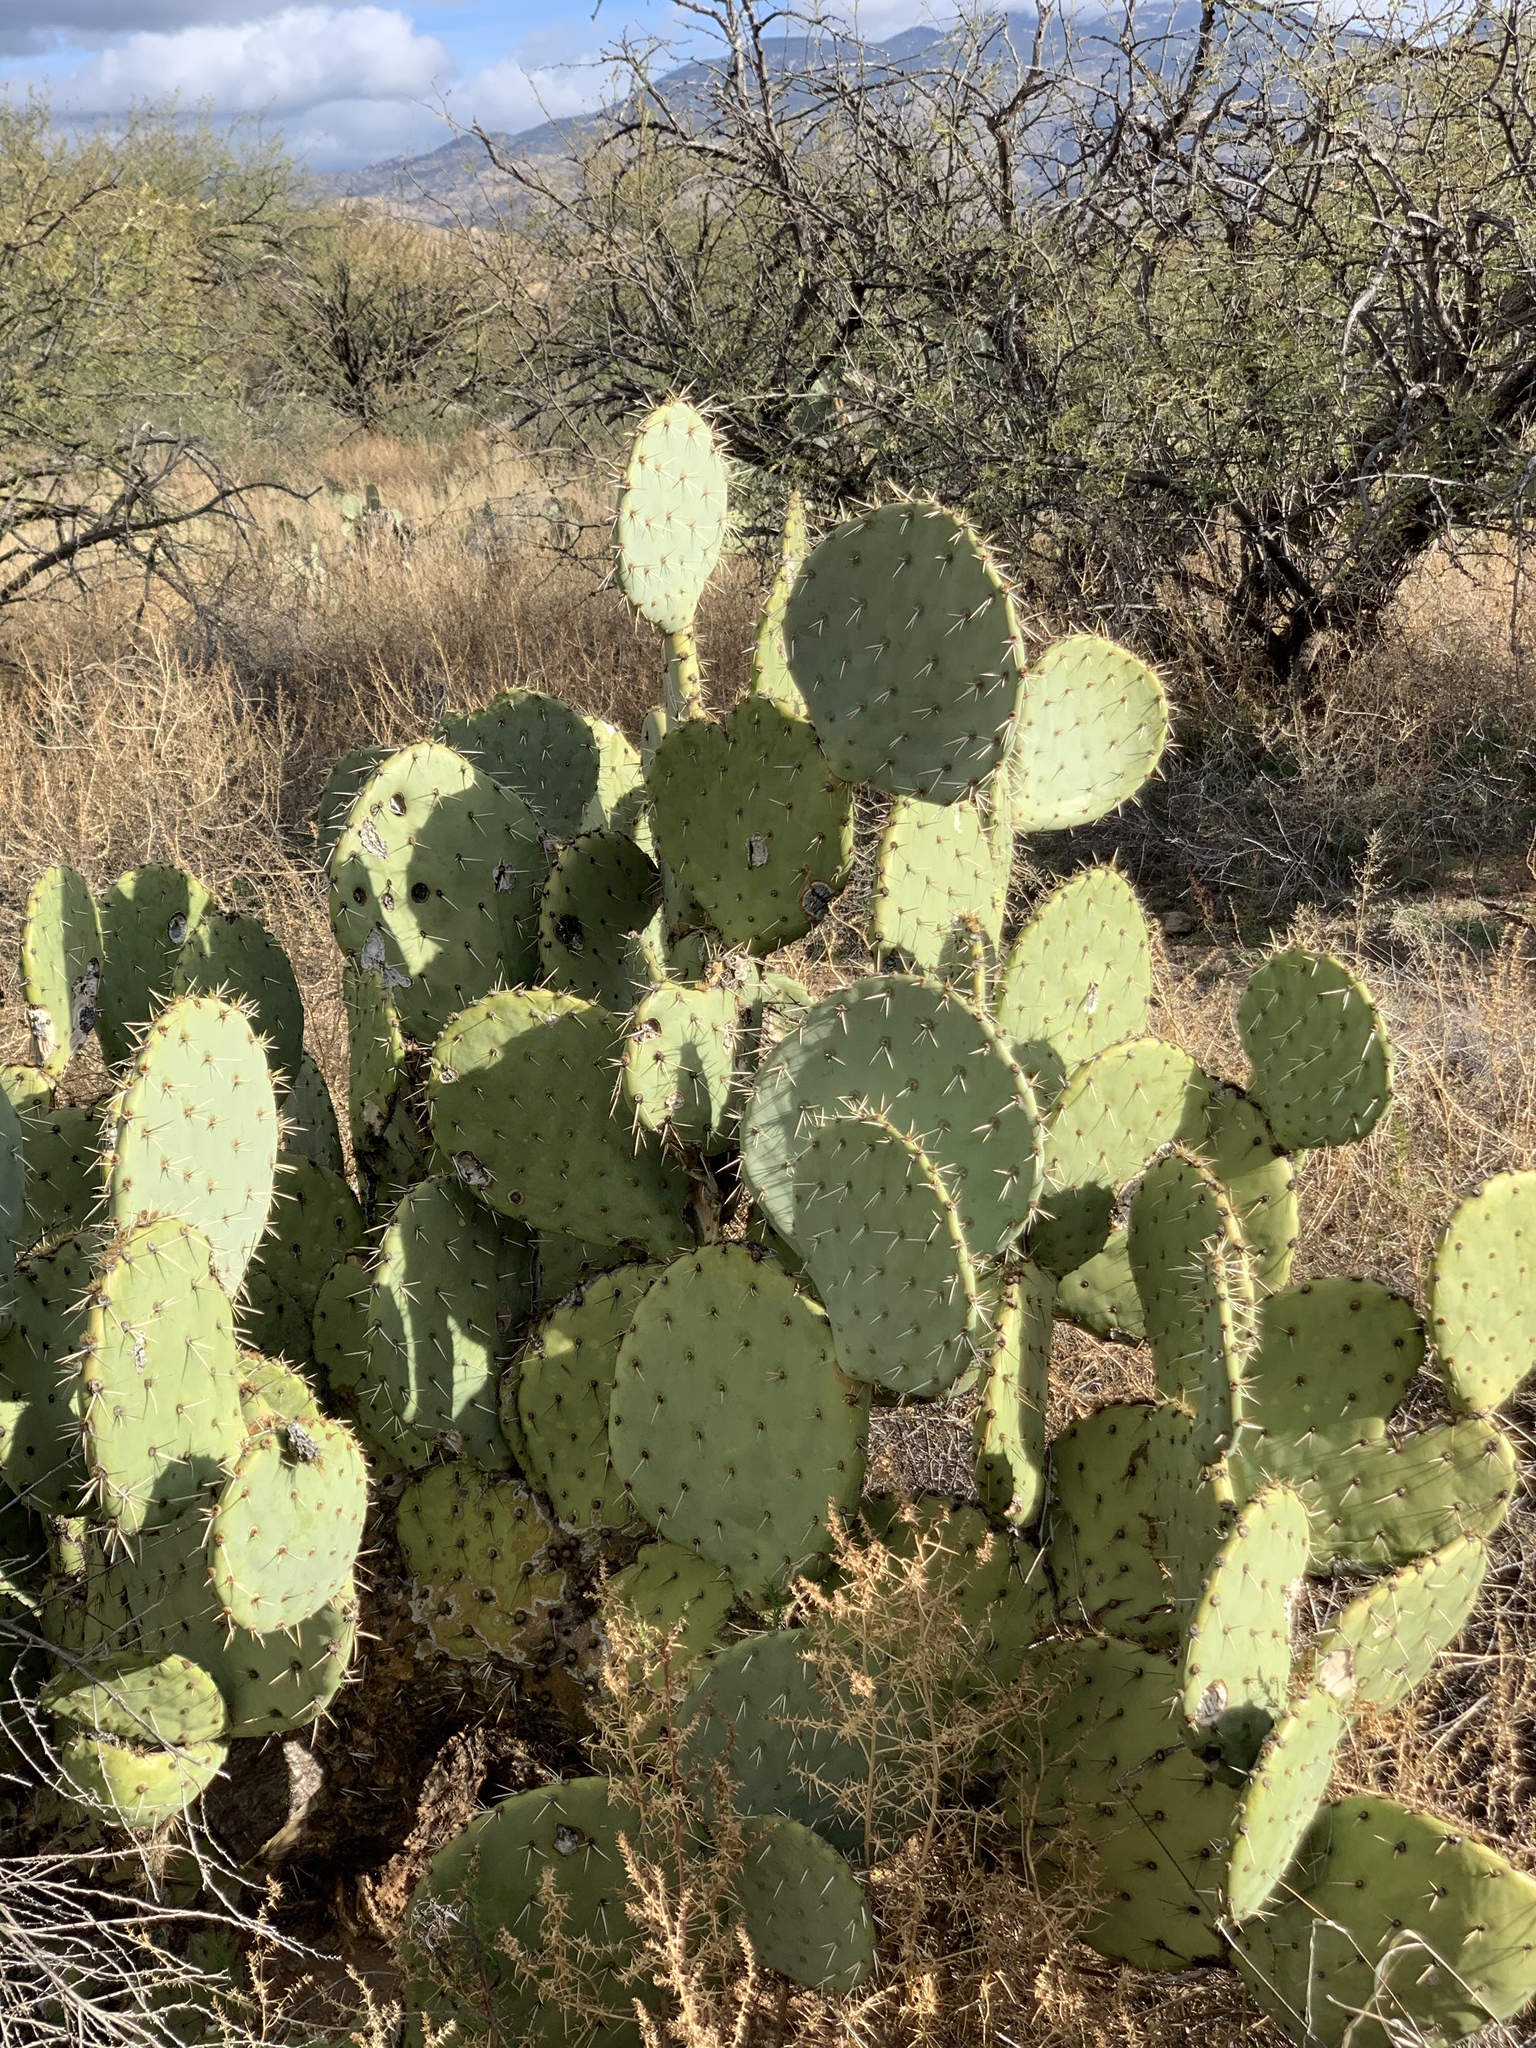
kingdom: Plantae
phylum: Tracheophyta
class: Magnoliopsida
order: Caryophyllales
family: Cactaceae
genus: Opuntia
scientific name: Opuntia engelmannii
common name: Cactus-apple
